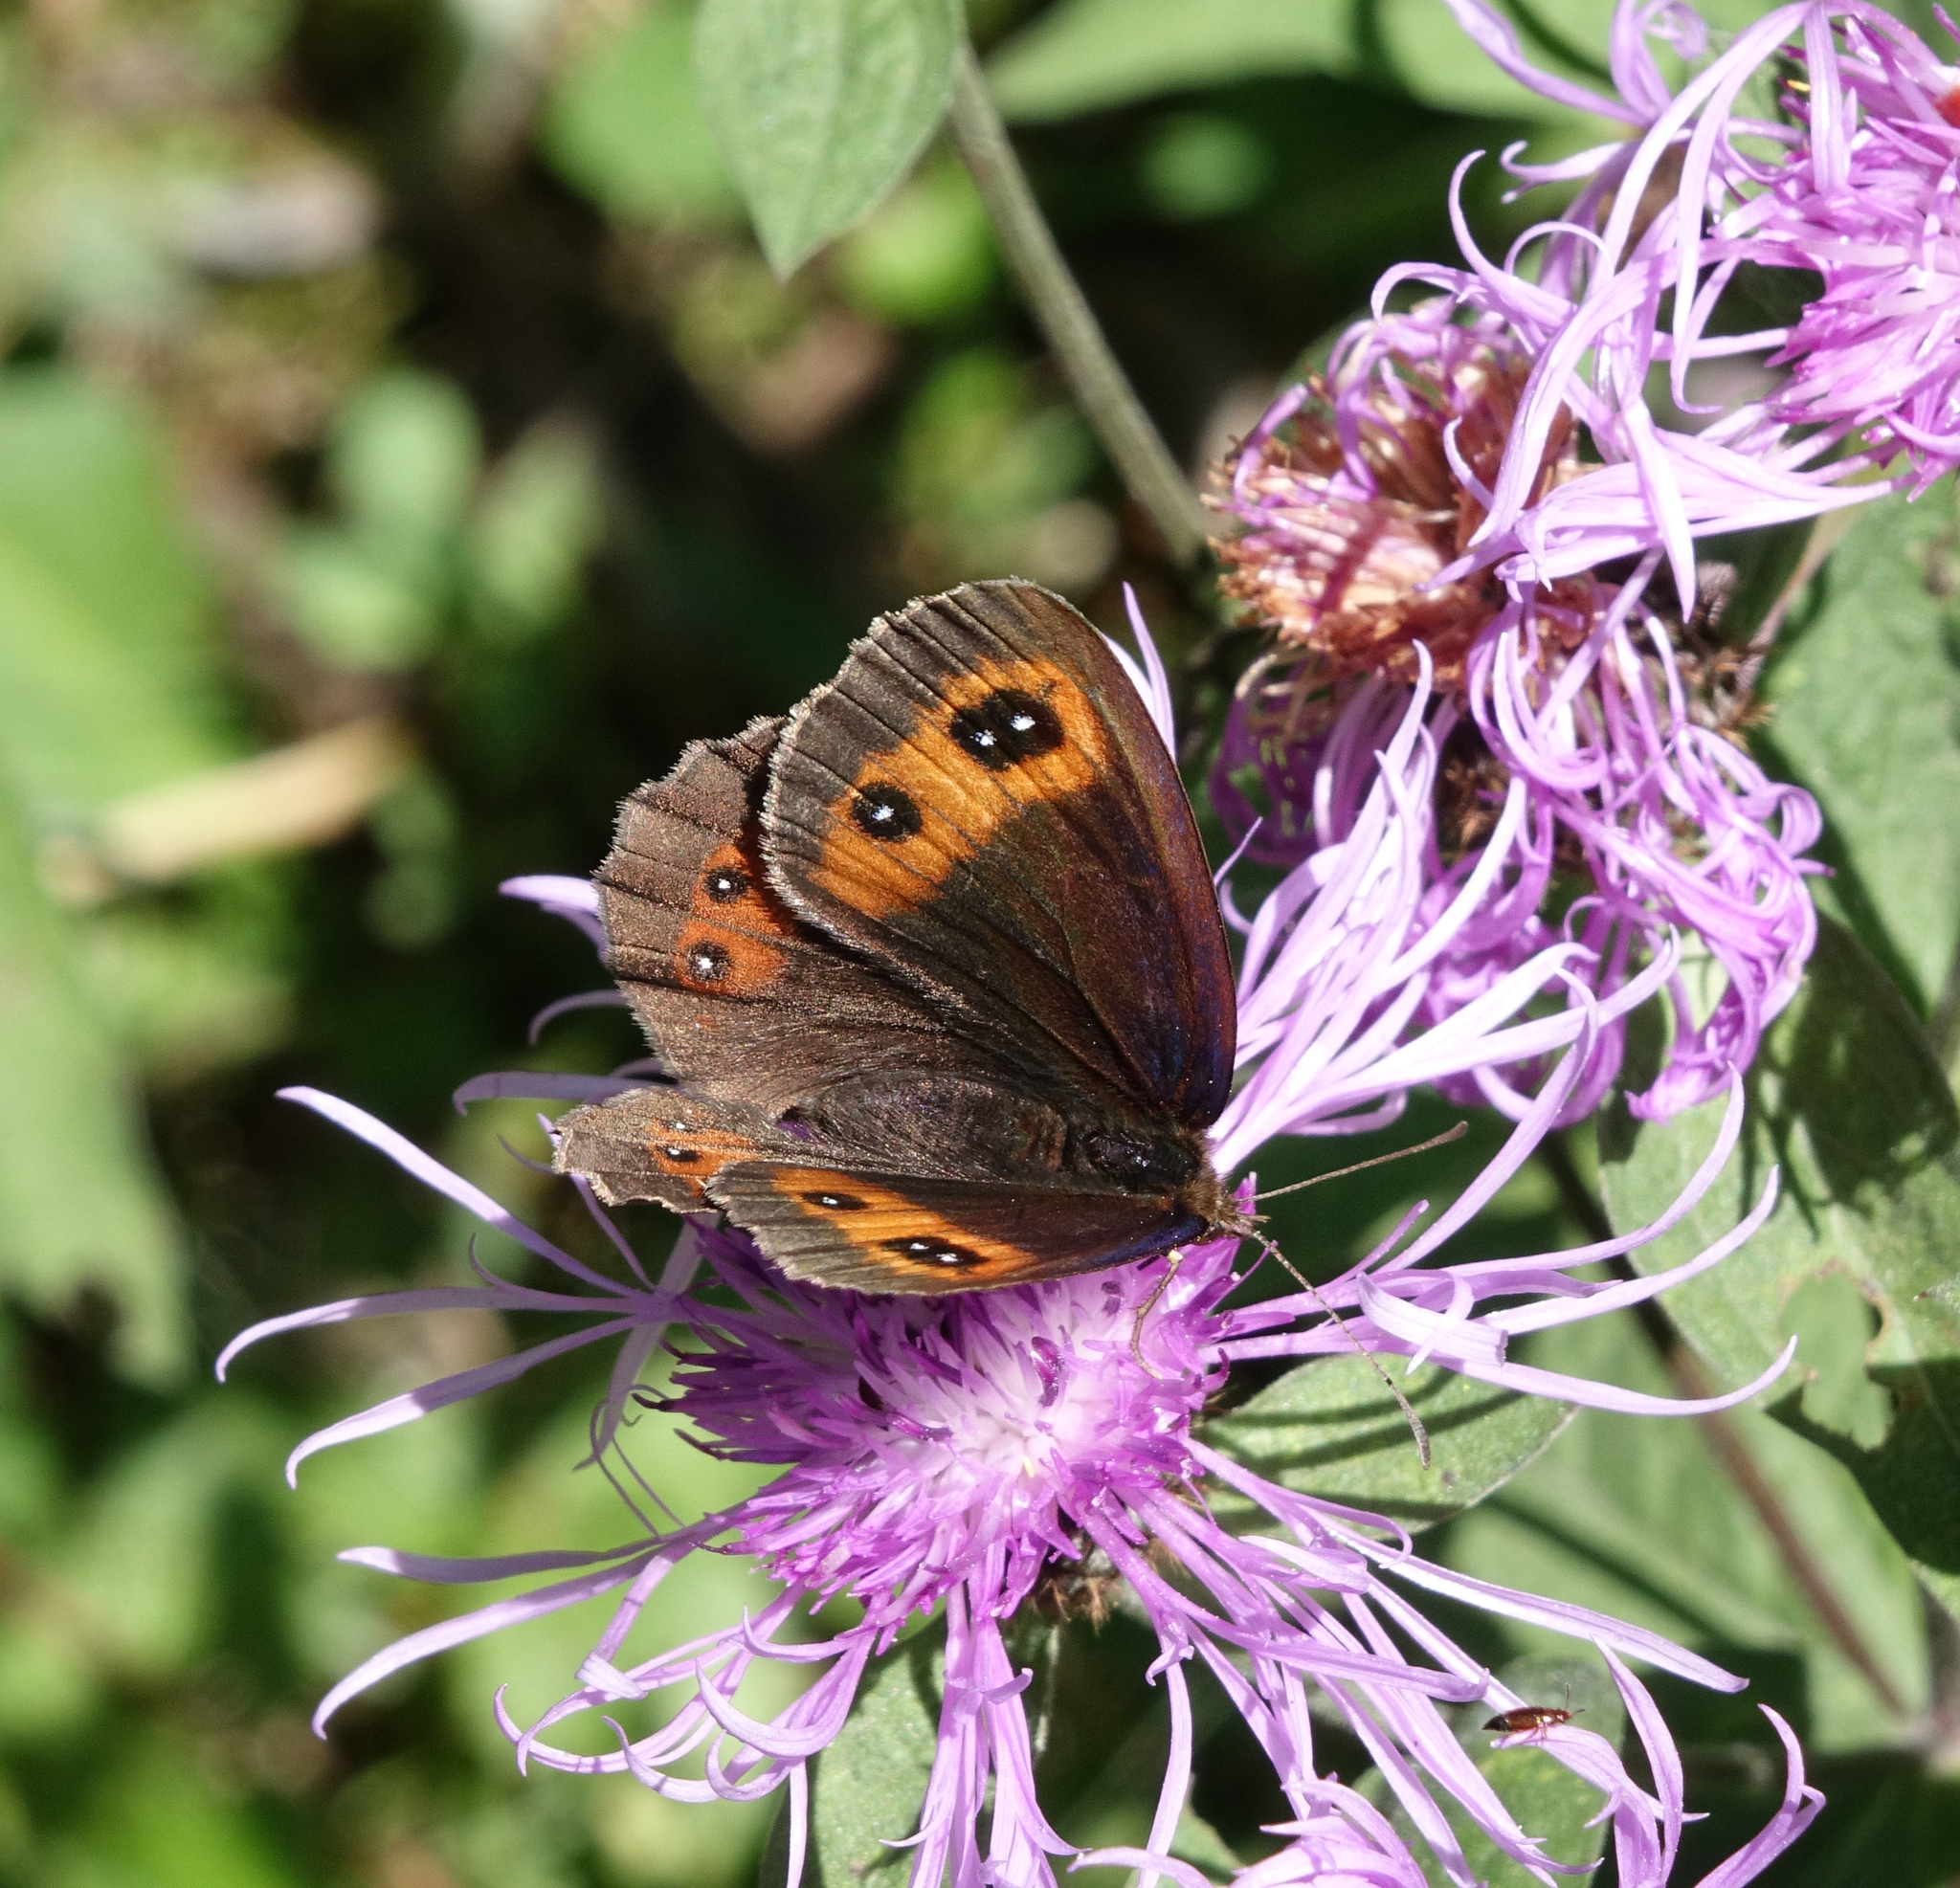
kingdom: Animalia
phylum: Arthropoda
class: Insecta
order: Lepidoptera
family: Nymphalidae
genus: Erebia
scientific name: Erebia aethiops
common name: Scotch argus
